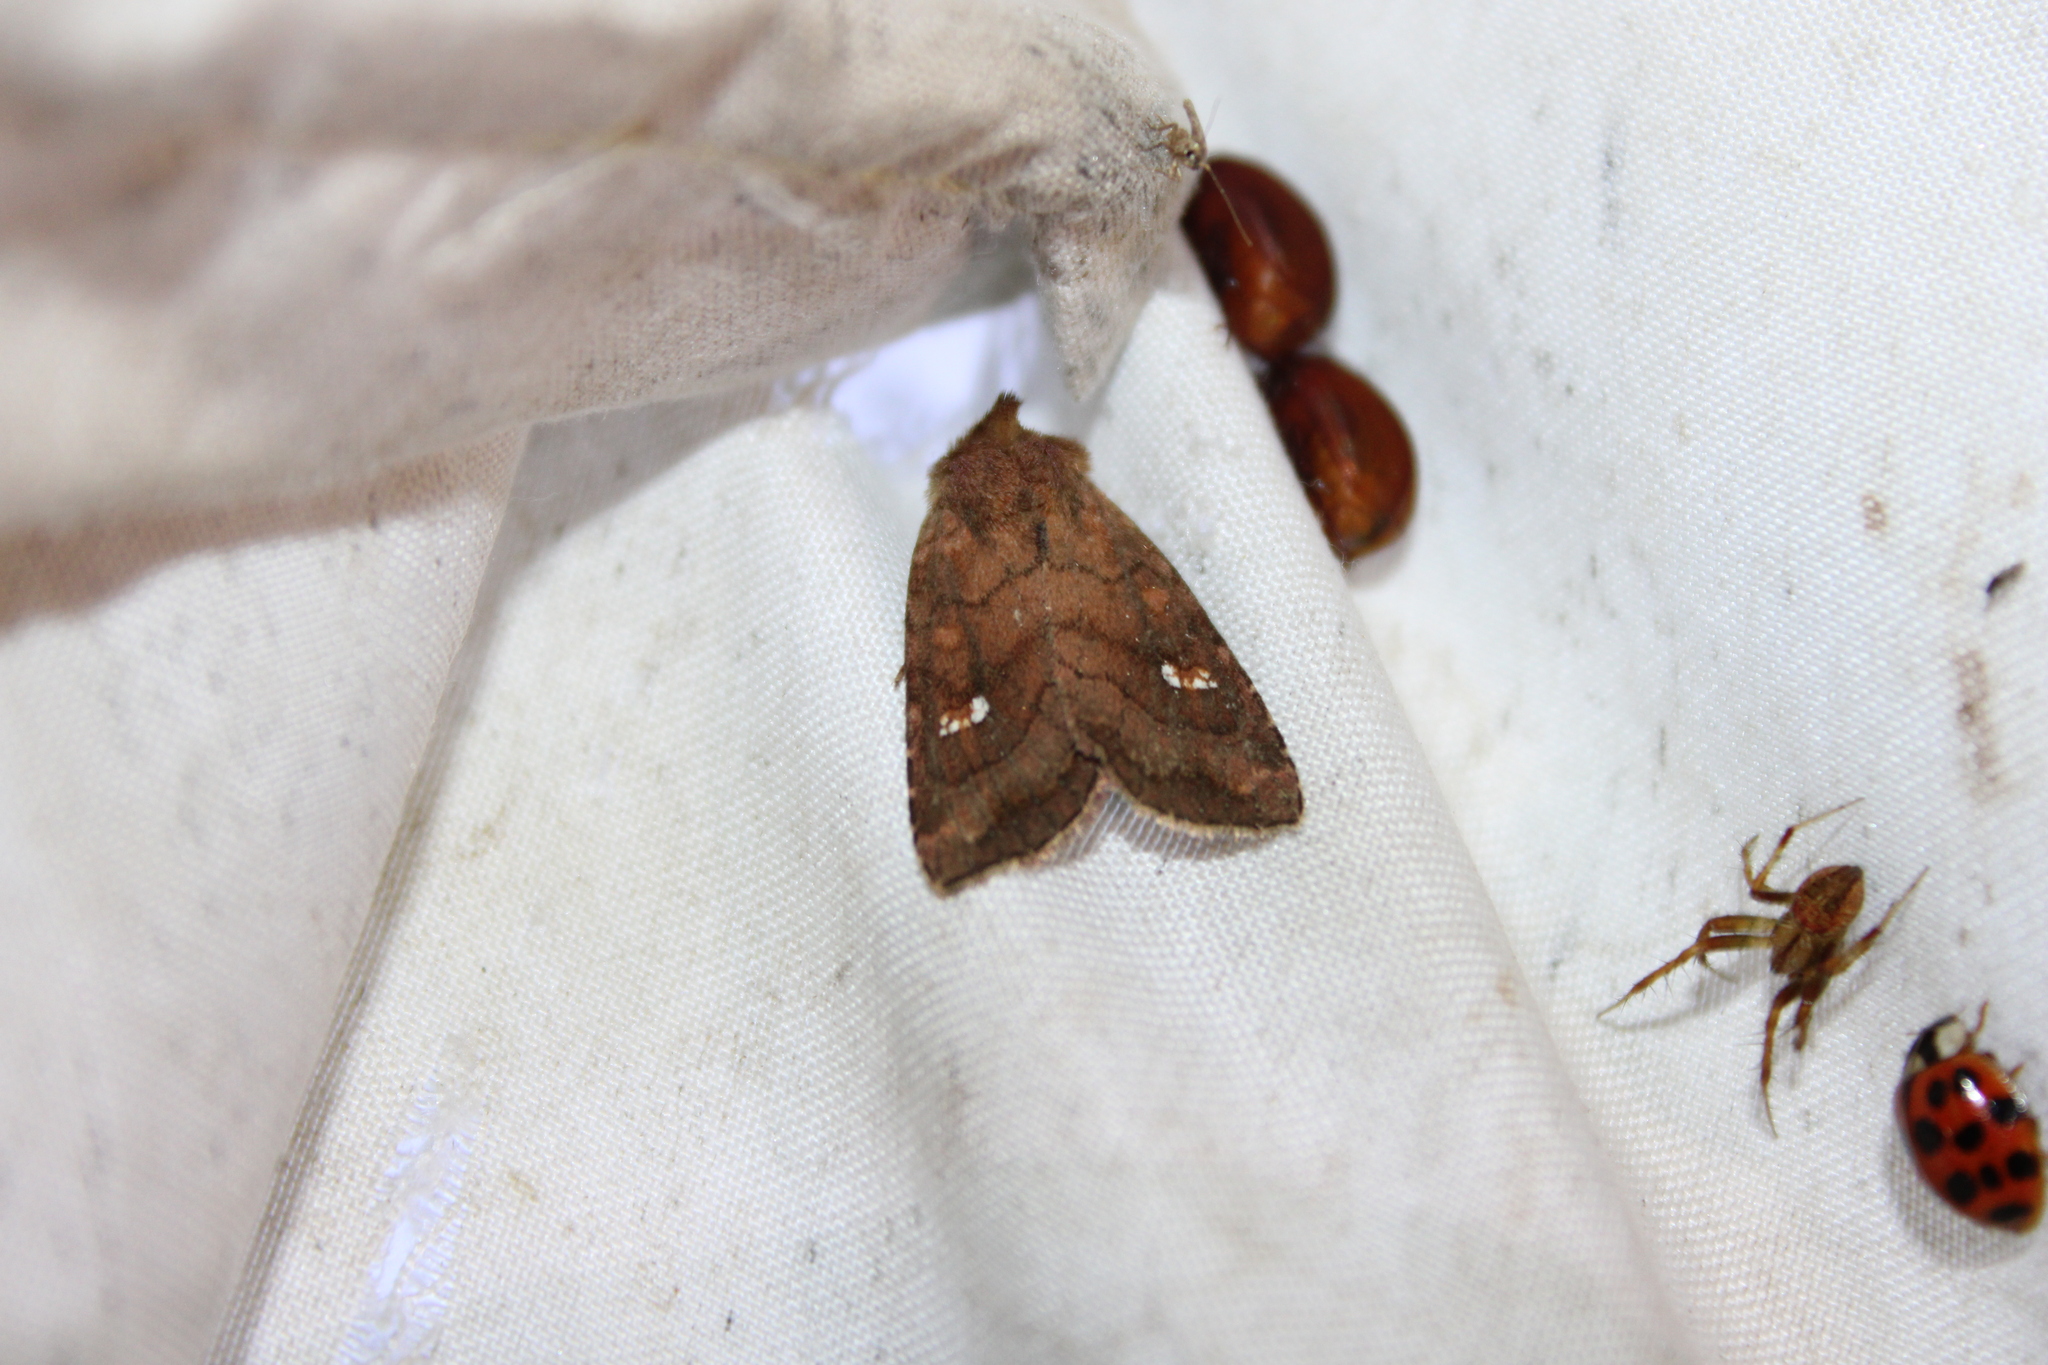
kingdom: Animalia
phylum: Arthropoda
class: Insecta
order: Lepidoptera
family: Noctuidae
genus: Tricholita
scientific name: Tricholita signata
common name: Signate quaker
